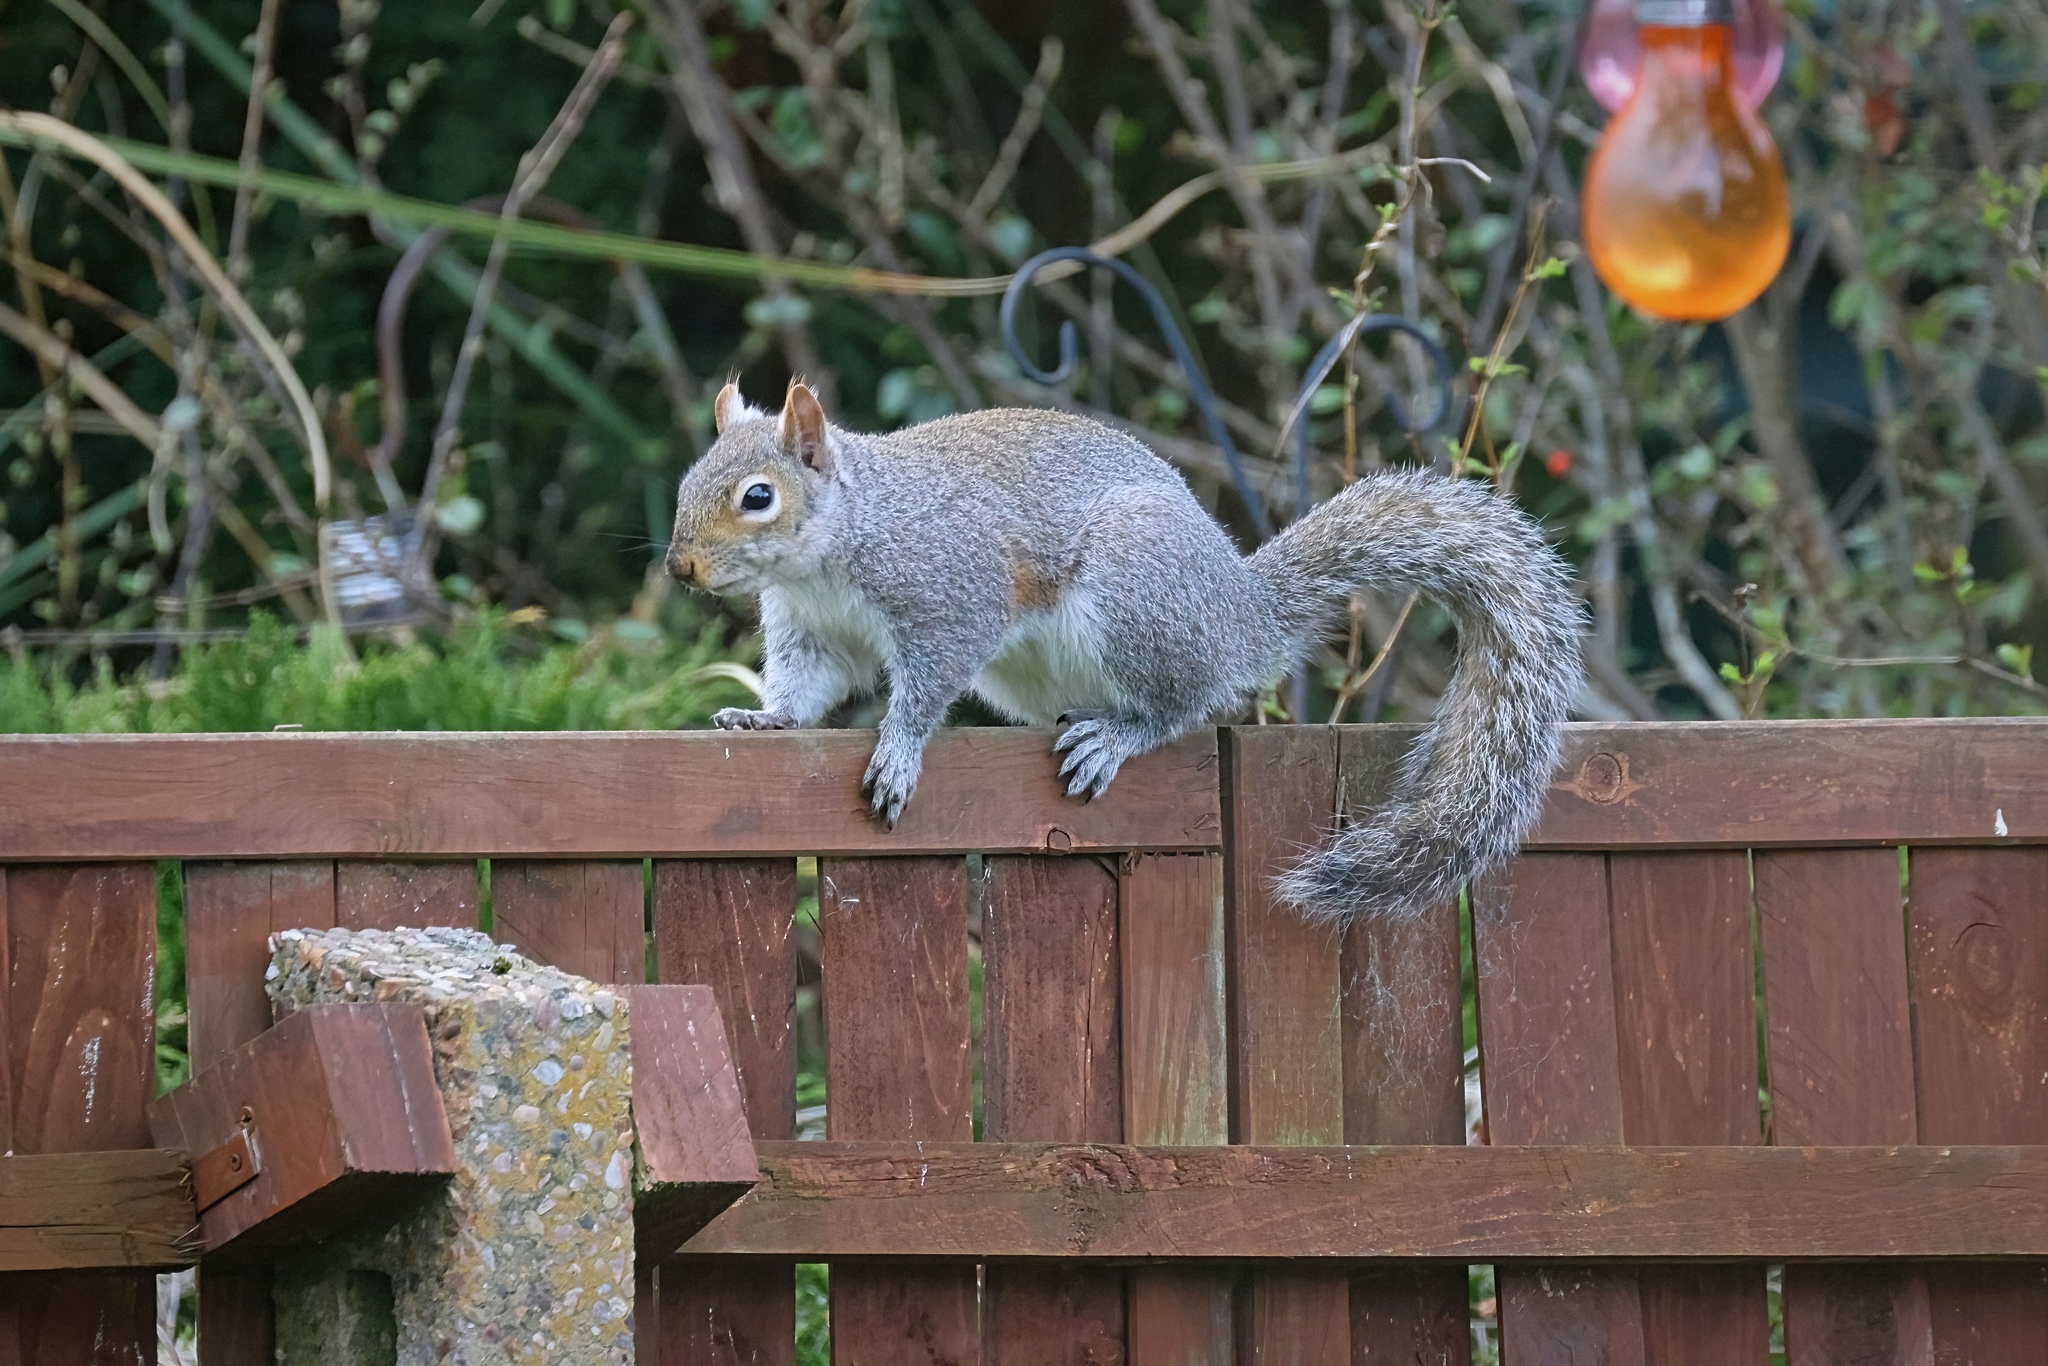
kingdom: Animalia
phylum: Chordata
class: Mammalia
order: Rodentia
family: Sciuridae
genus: Sciurus
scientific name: Sciurus carolinensis
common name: Eastern gray squirrel
